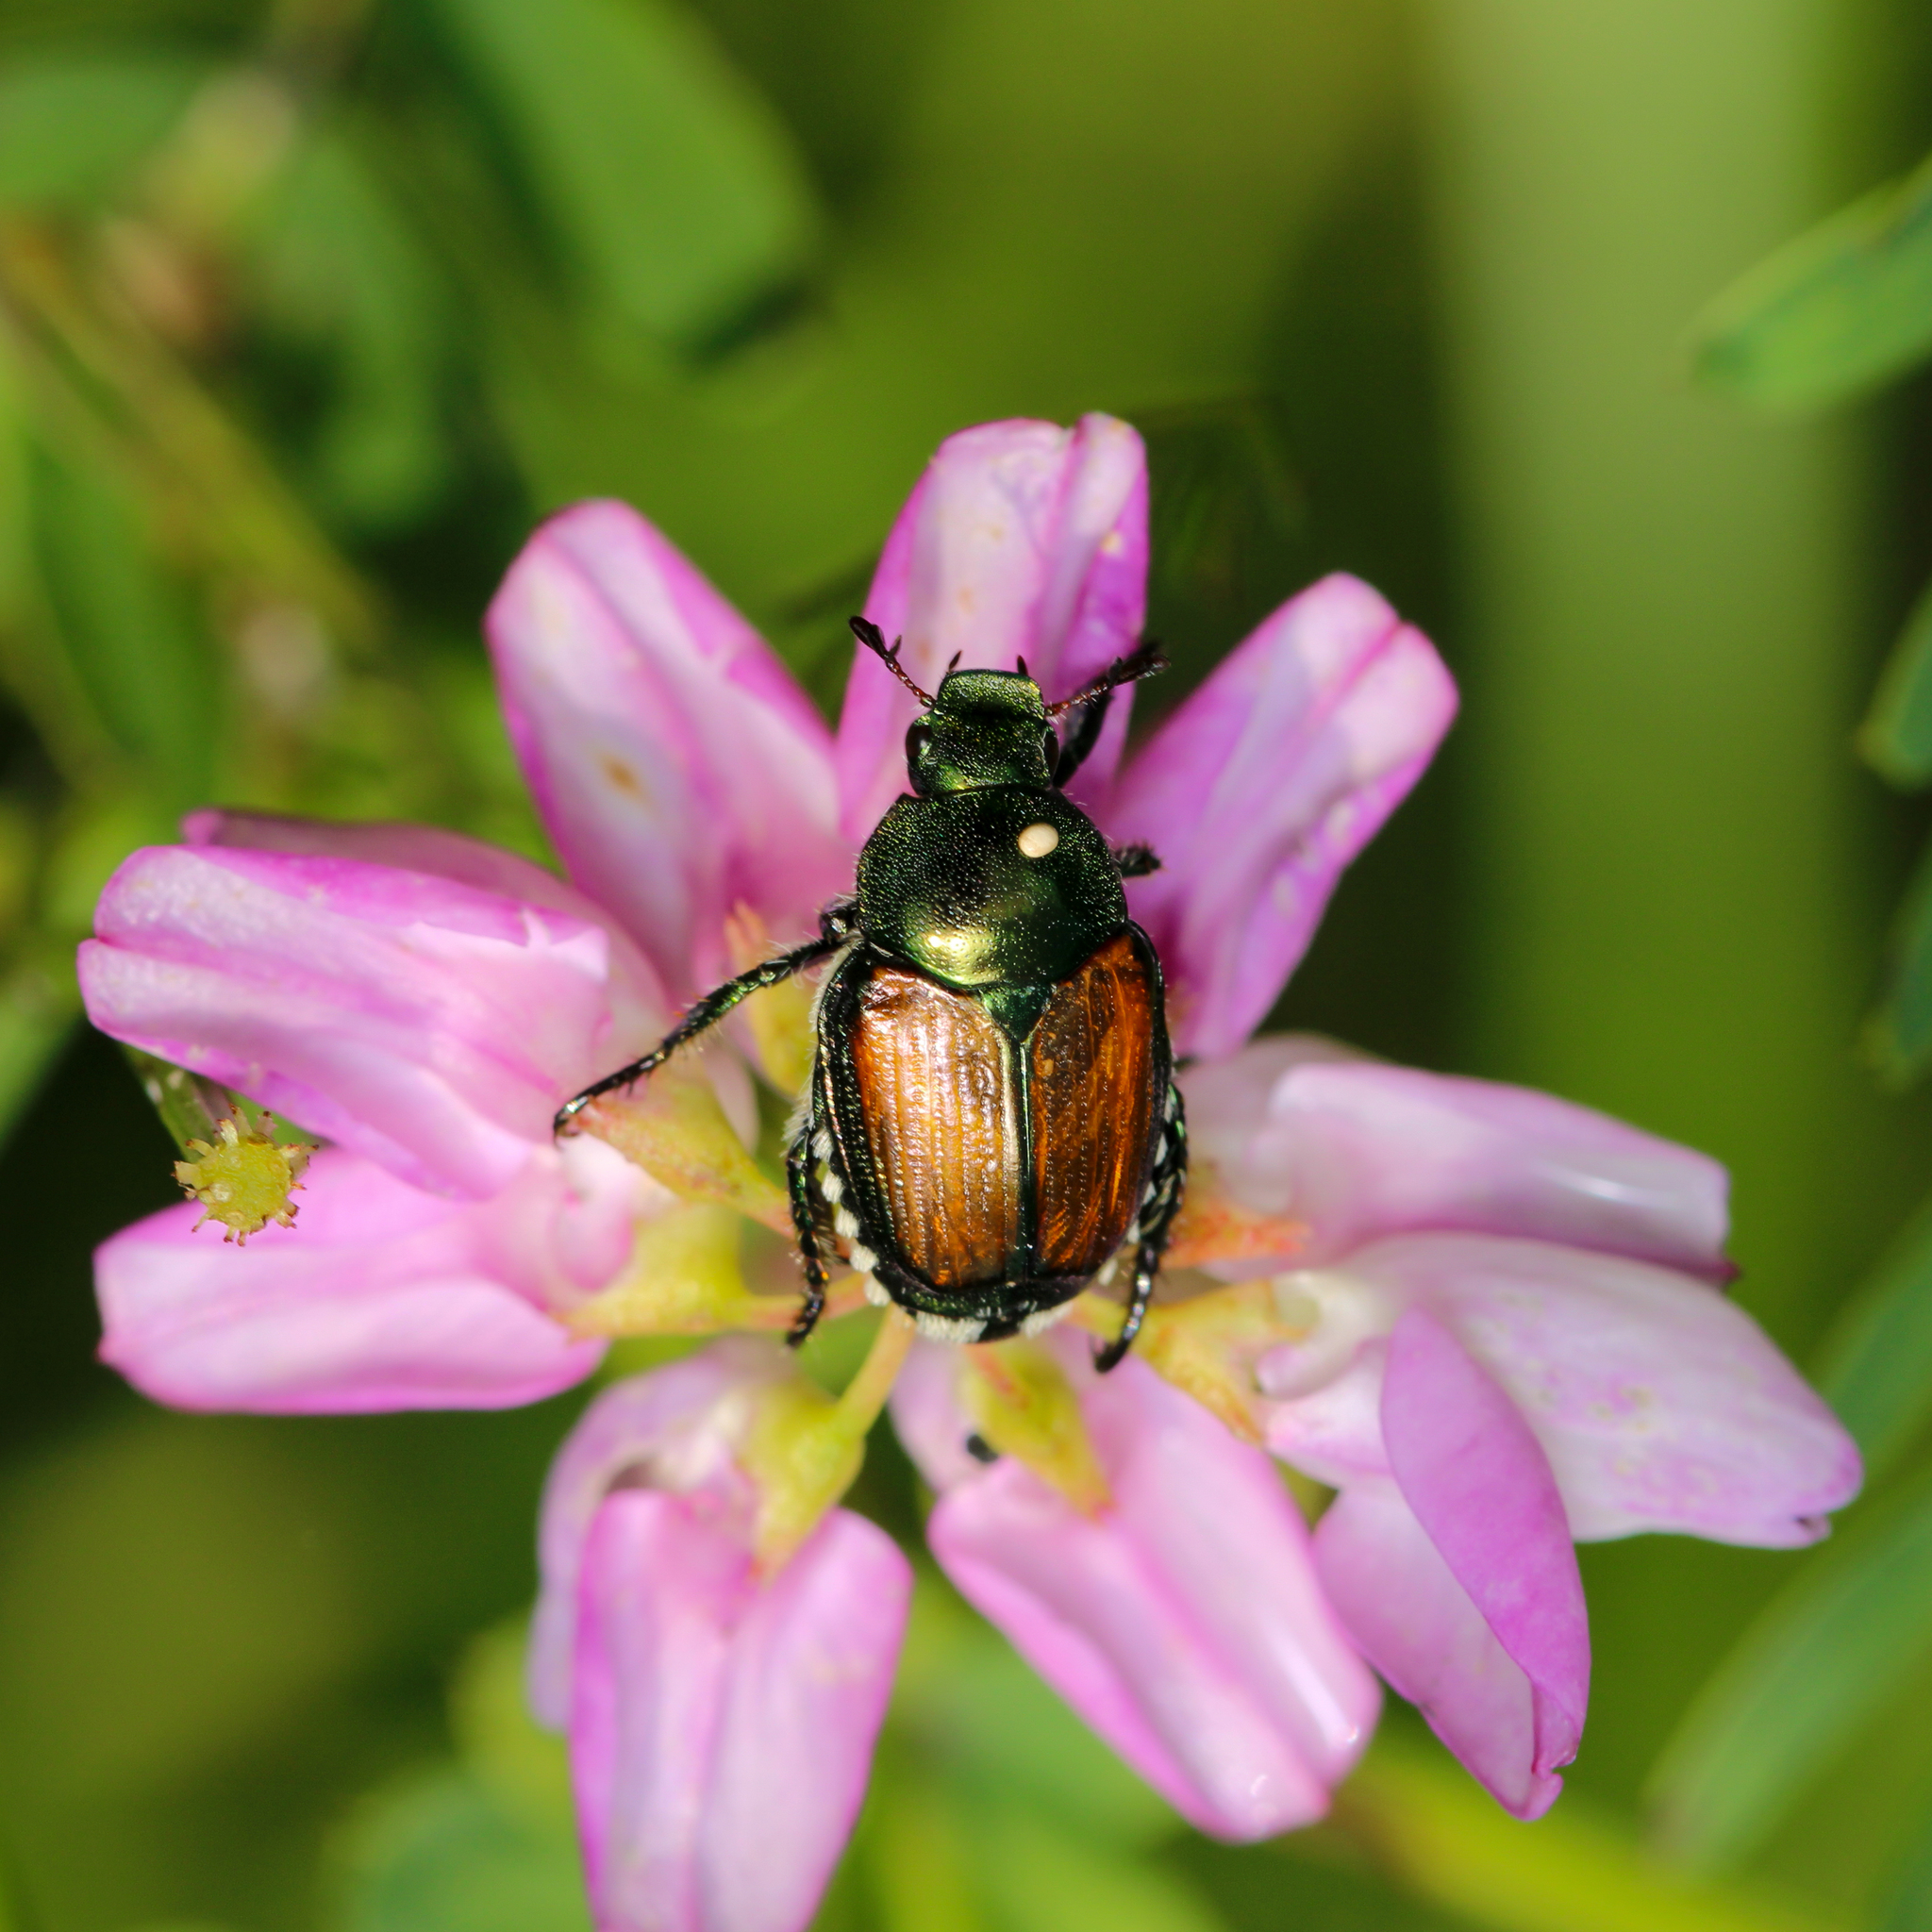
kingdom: Animalia
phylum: Arthropoda
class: Insecta
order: Diptera
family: Tachinidae
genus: Istocheta
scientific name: Istocheta aldrichi
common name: Parasitic wasp
